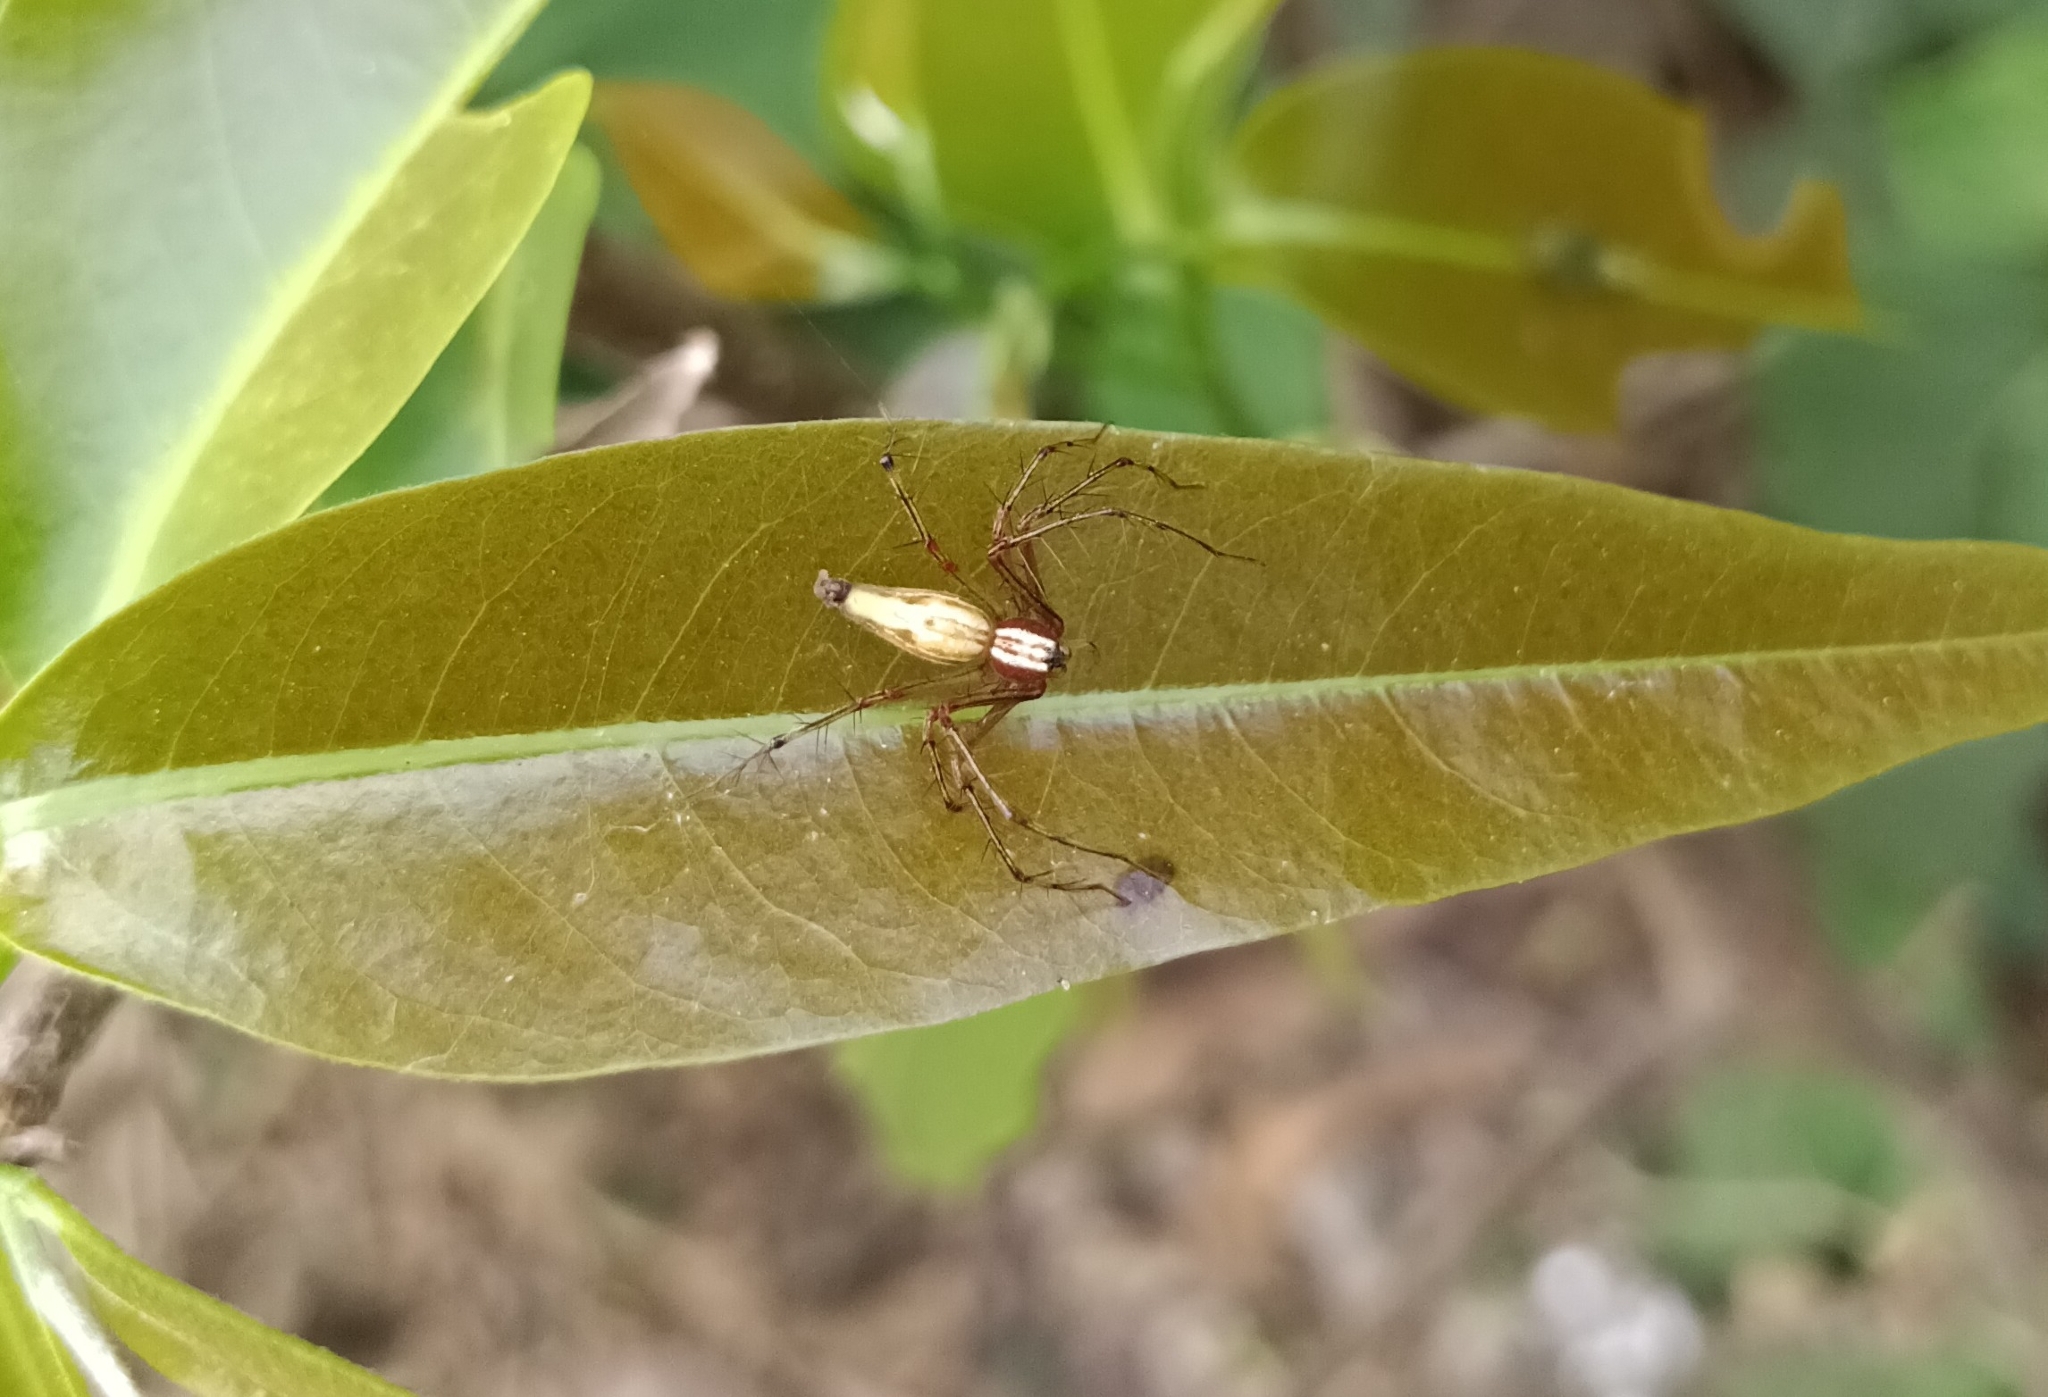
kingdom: Animalia
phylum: Arthropoda
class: Arachnida
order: Araneae
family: Oxyopidae
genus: Oxyopes
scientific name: Oxyopes shweta
